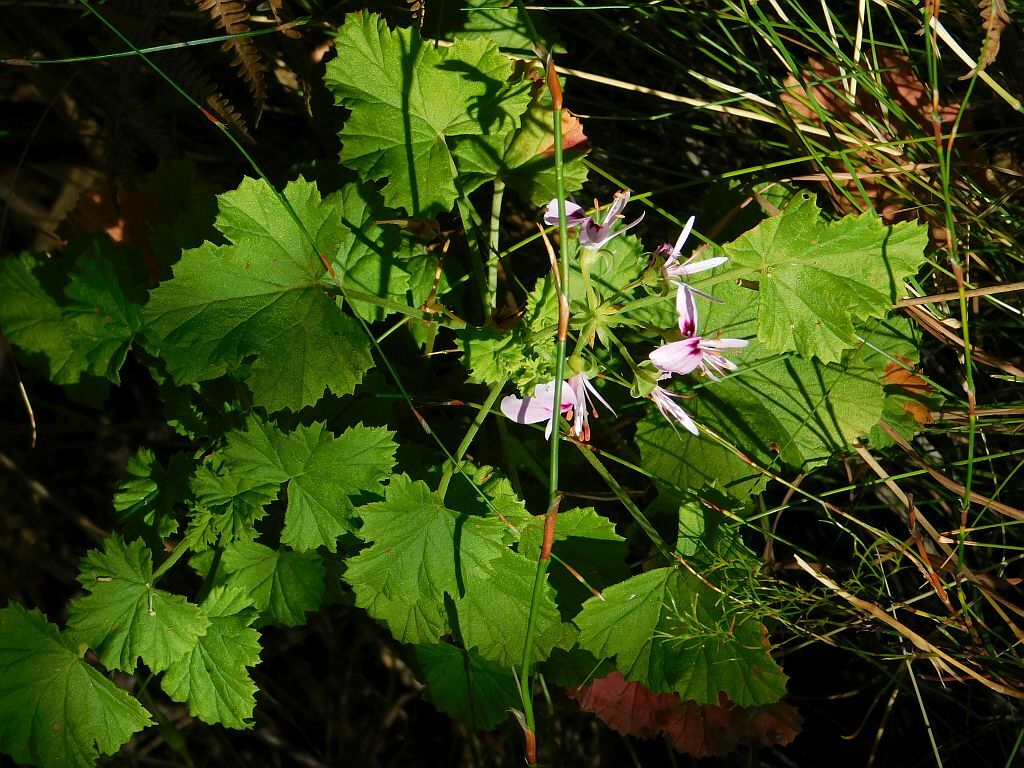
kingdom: Plantae
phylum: Tracheophyta
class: Magnoliopsida
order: Geraniales
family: Geraniaceae
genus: Pelargonium
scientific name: Pelargonium greytonense
